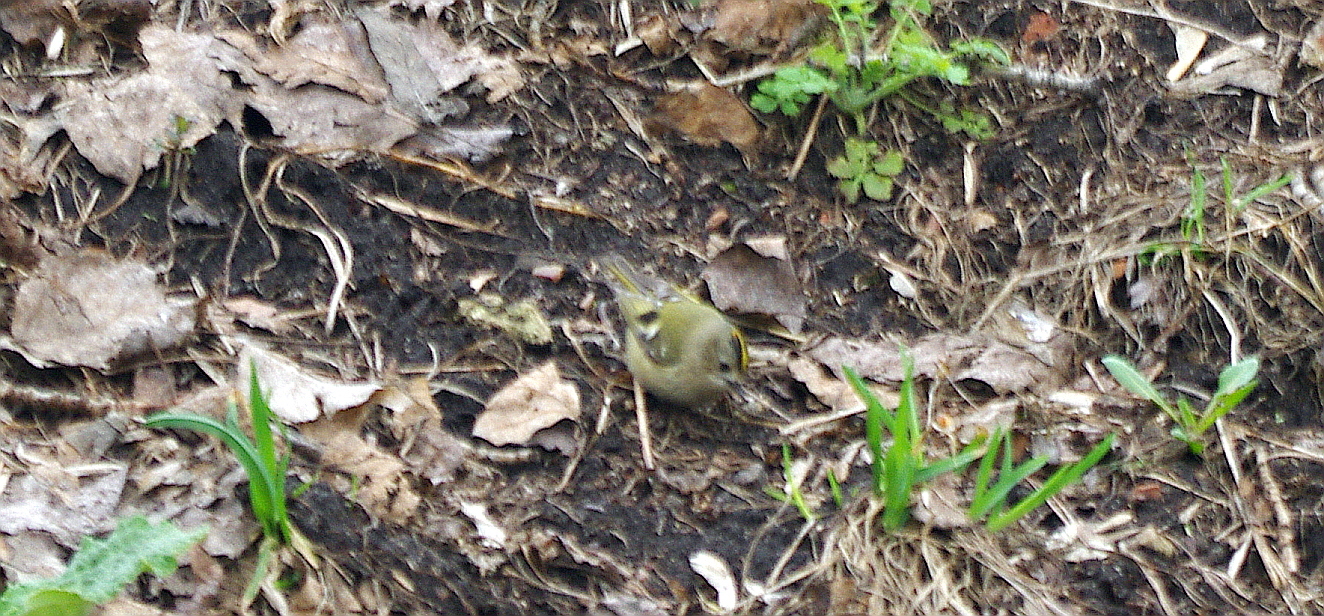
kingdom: Animalia
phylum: Chordata
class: Aves
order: Passeriformes
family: Regulidae
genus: Regulus
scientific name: Regulus regulus
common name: Goldcrest
